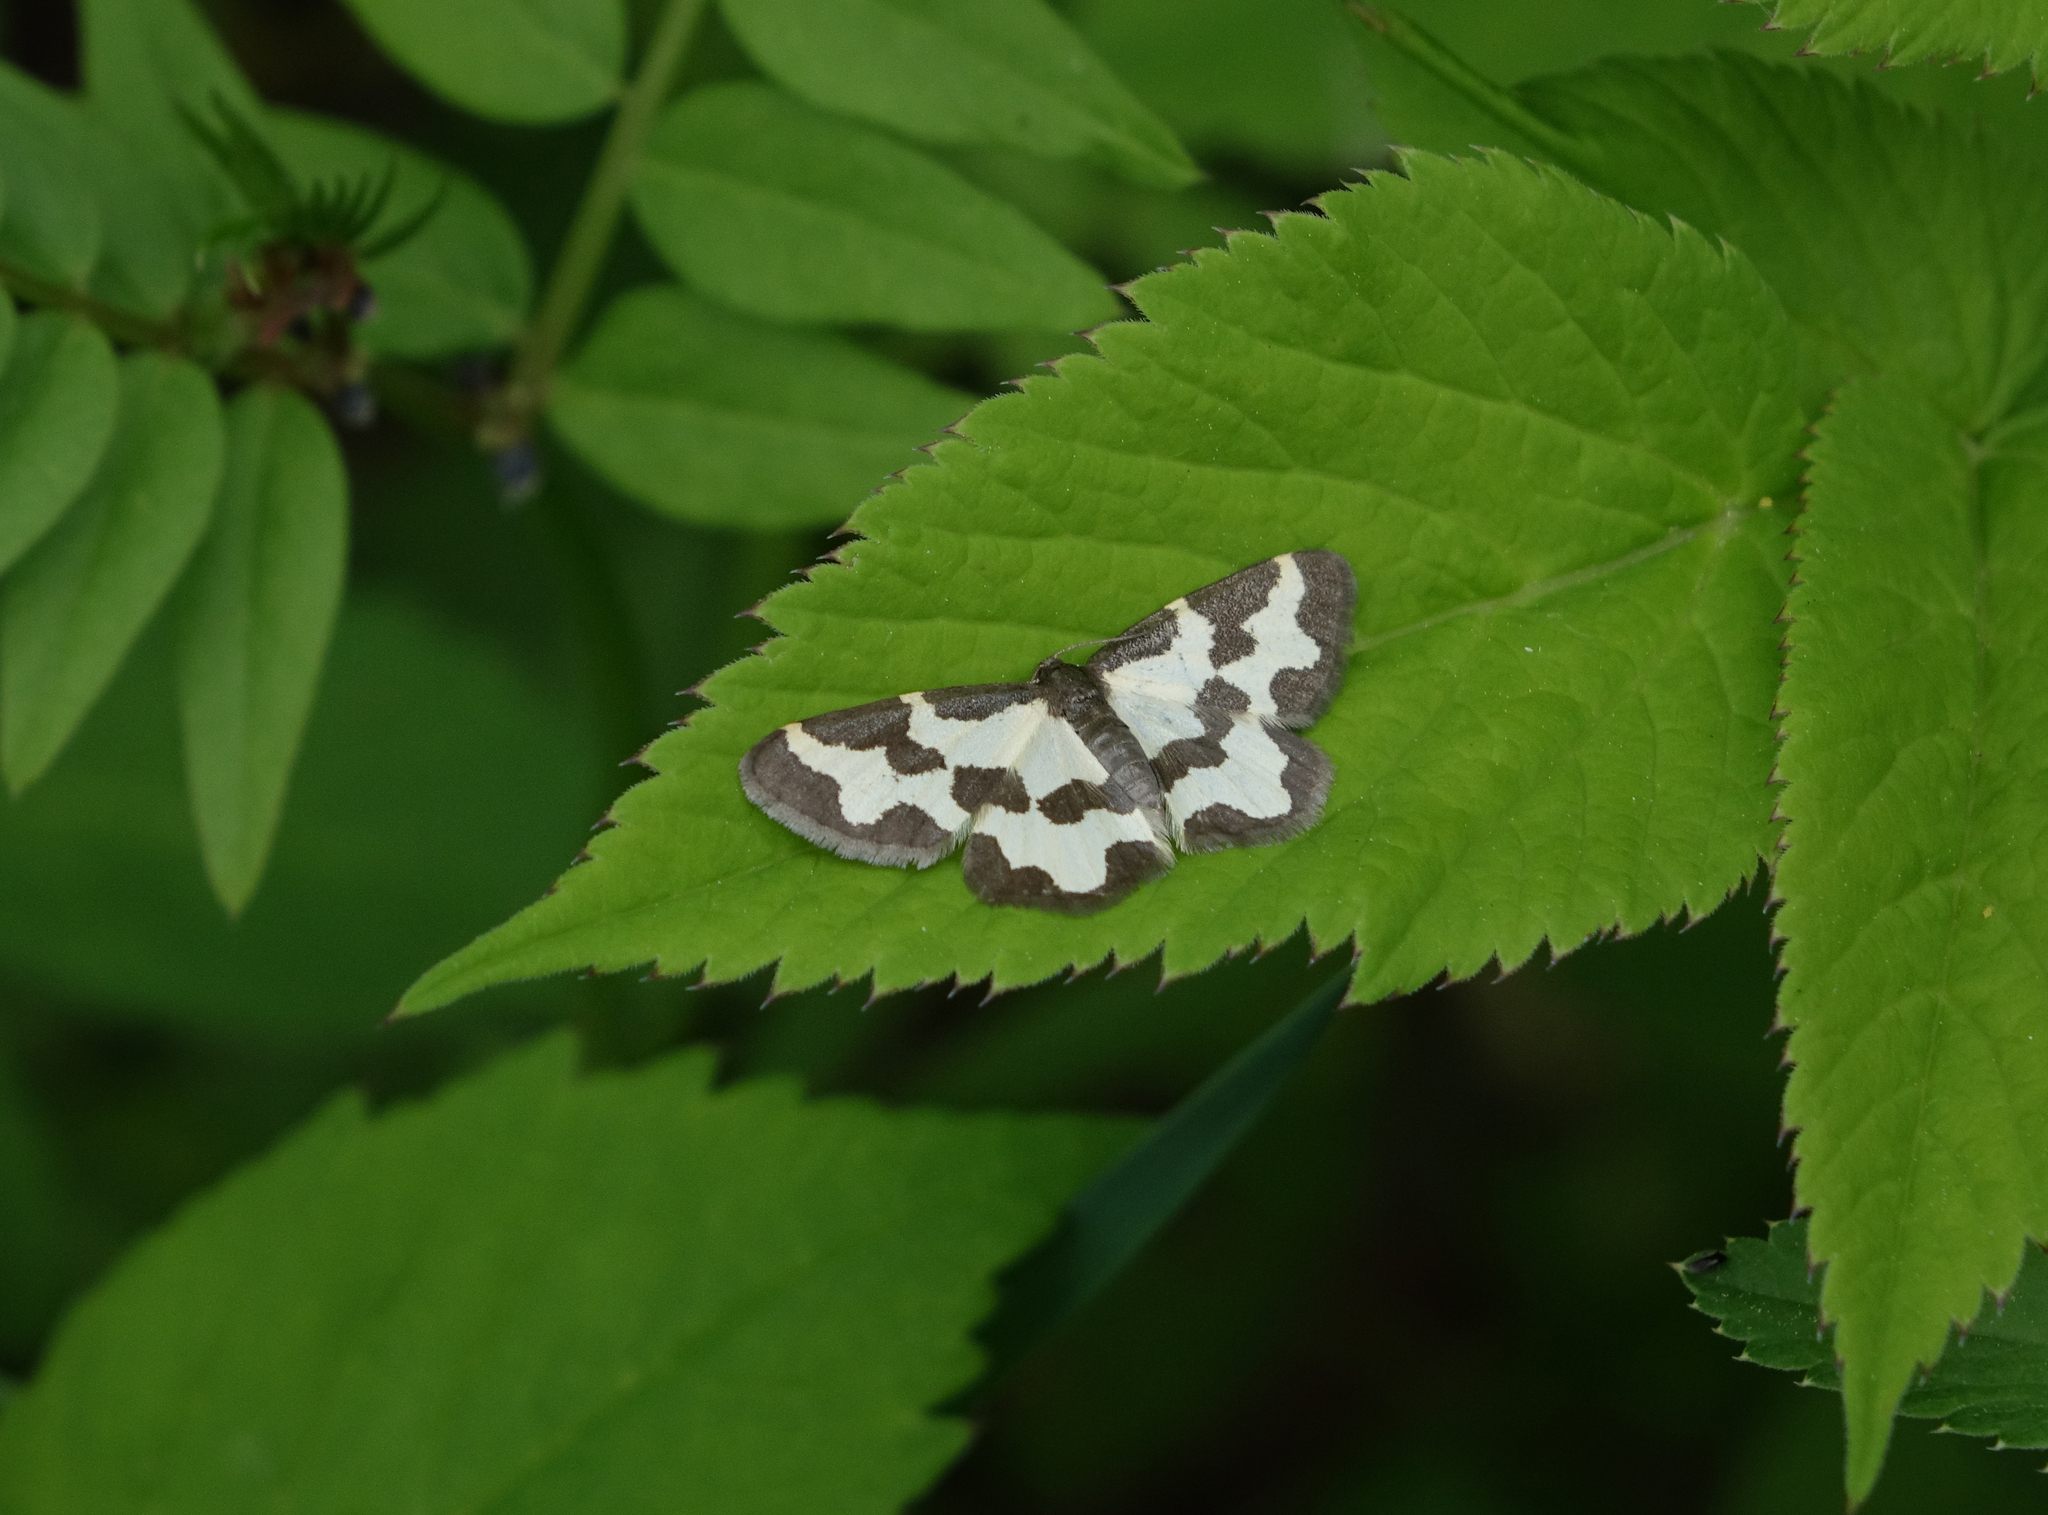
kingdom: Animalia
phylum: Arthropoda
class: Insecta
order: Lepidoptera
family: Geometridae
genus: Lomaspilis
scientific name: Lomaspilis marginata
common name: Clouded border
